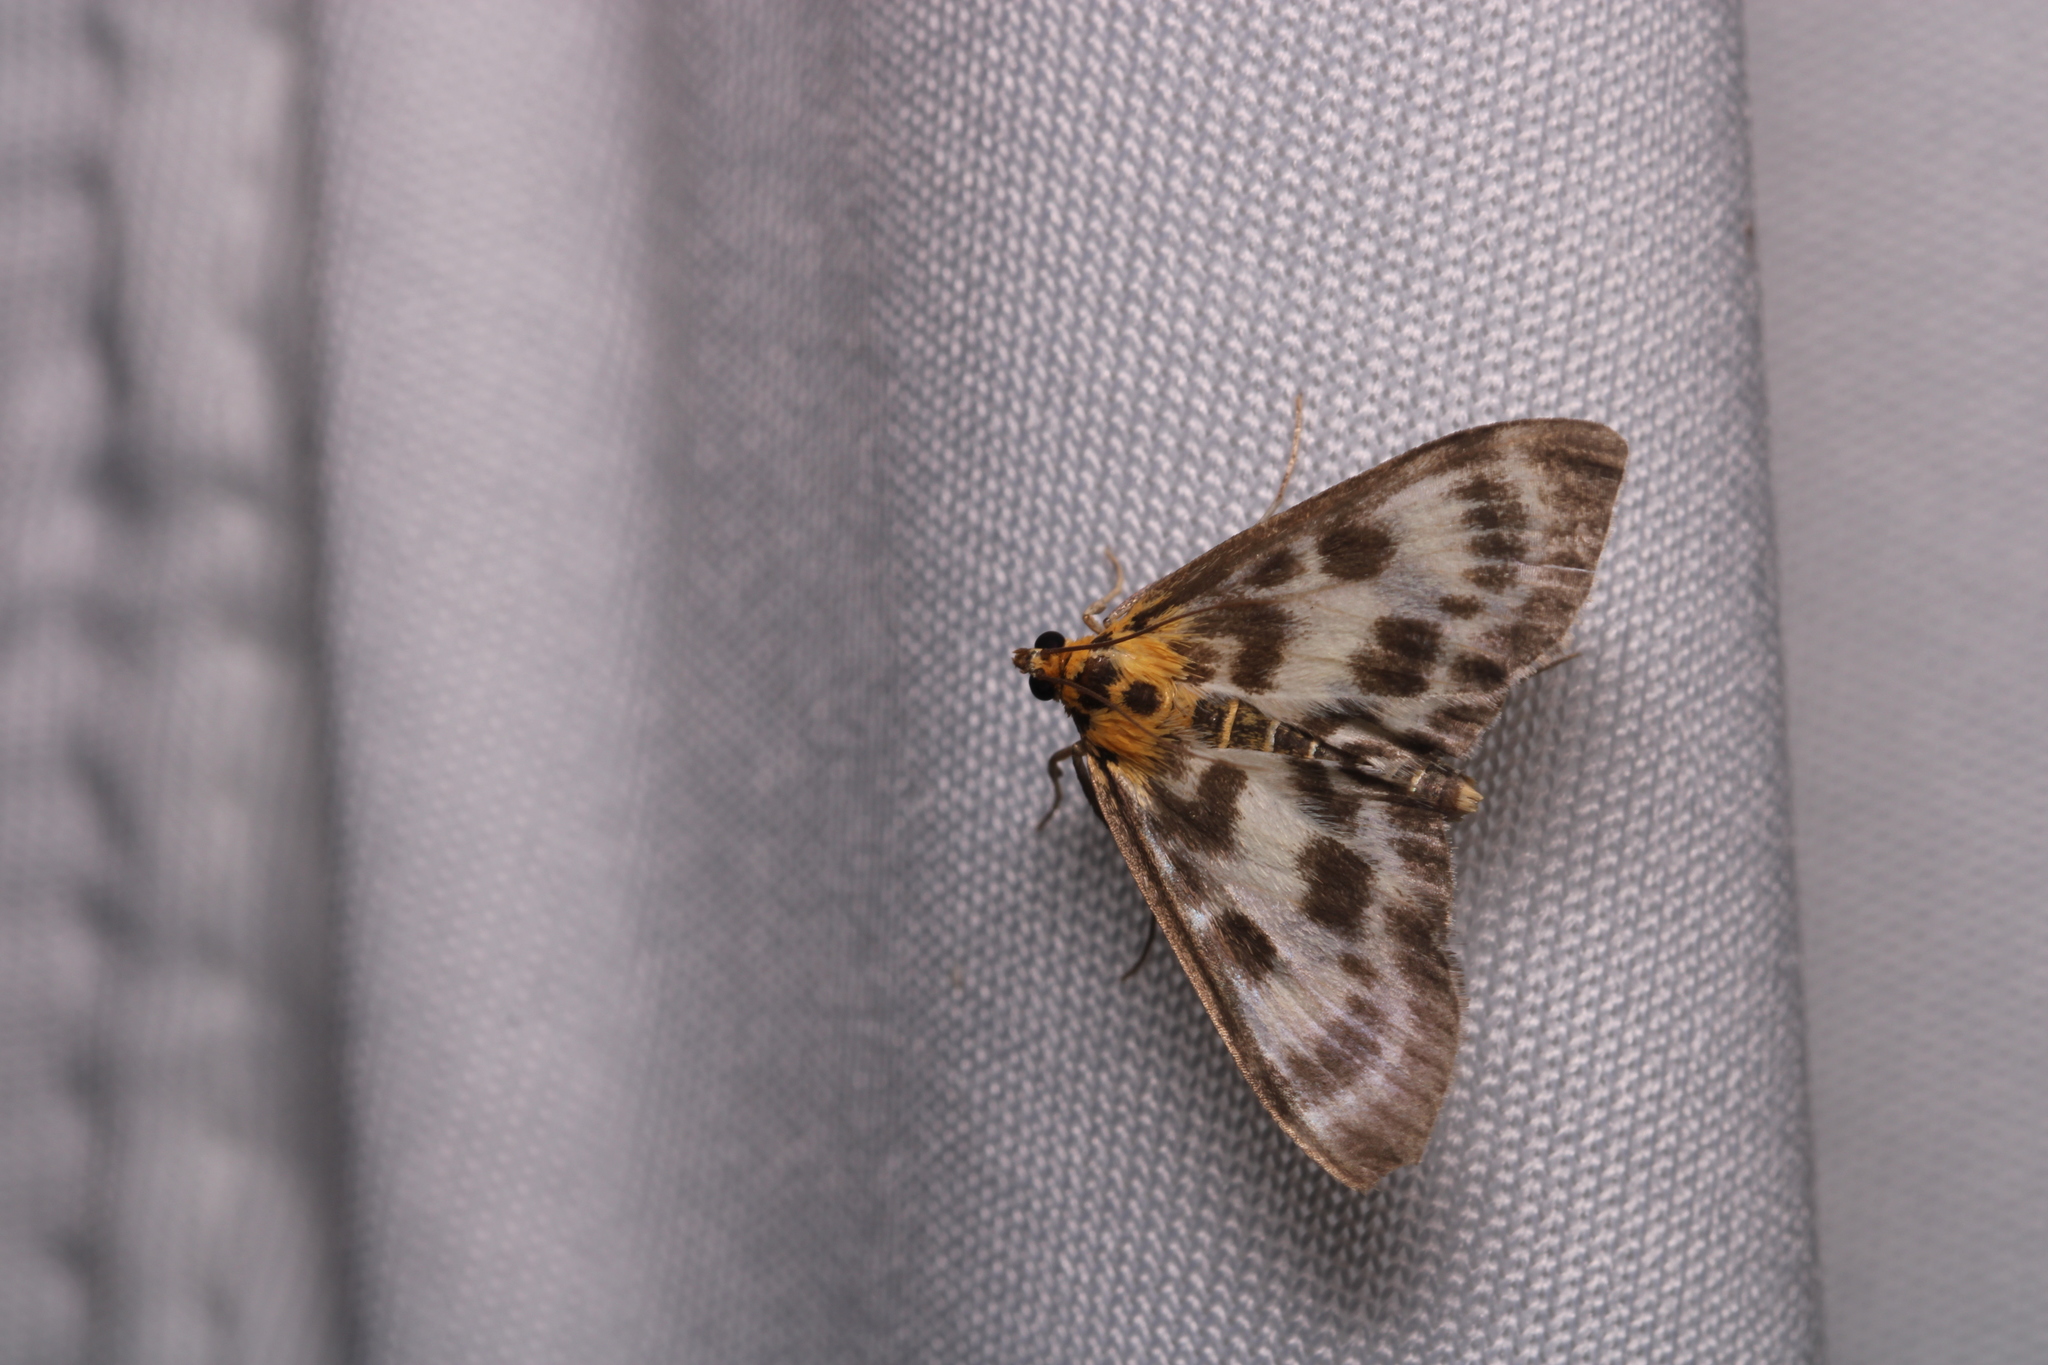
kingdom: Animalia
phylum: Arthropoda
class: Insecta
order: Lepidoptera
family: Crambidae
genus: Anania
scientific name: Anania hortulata
